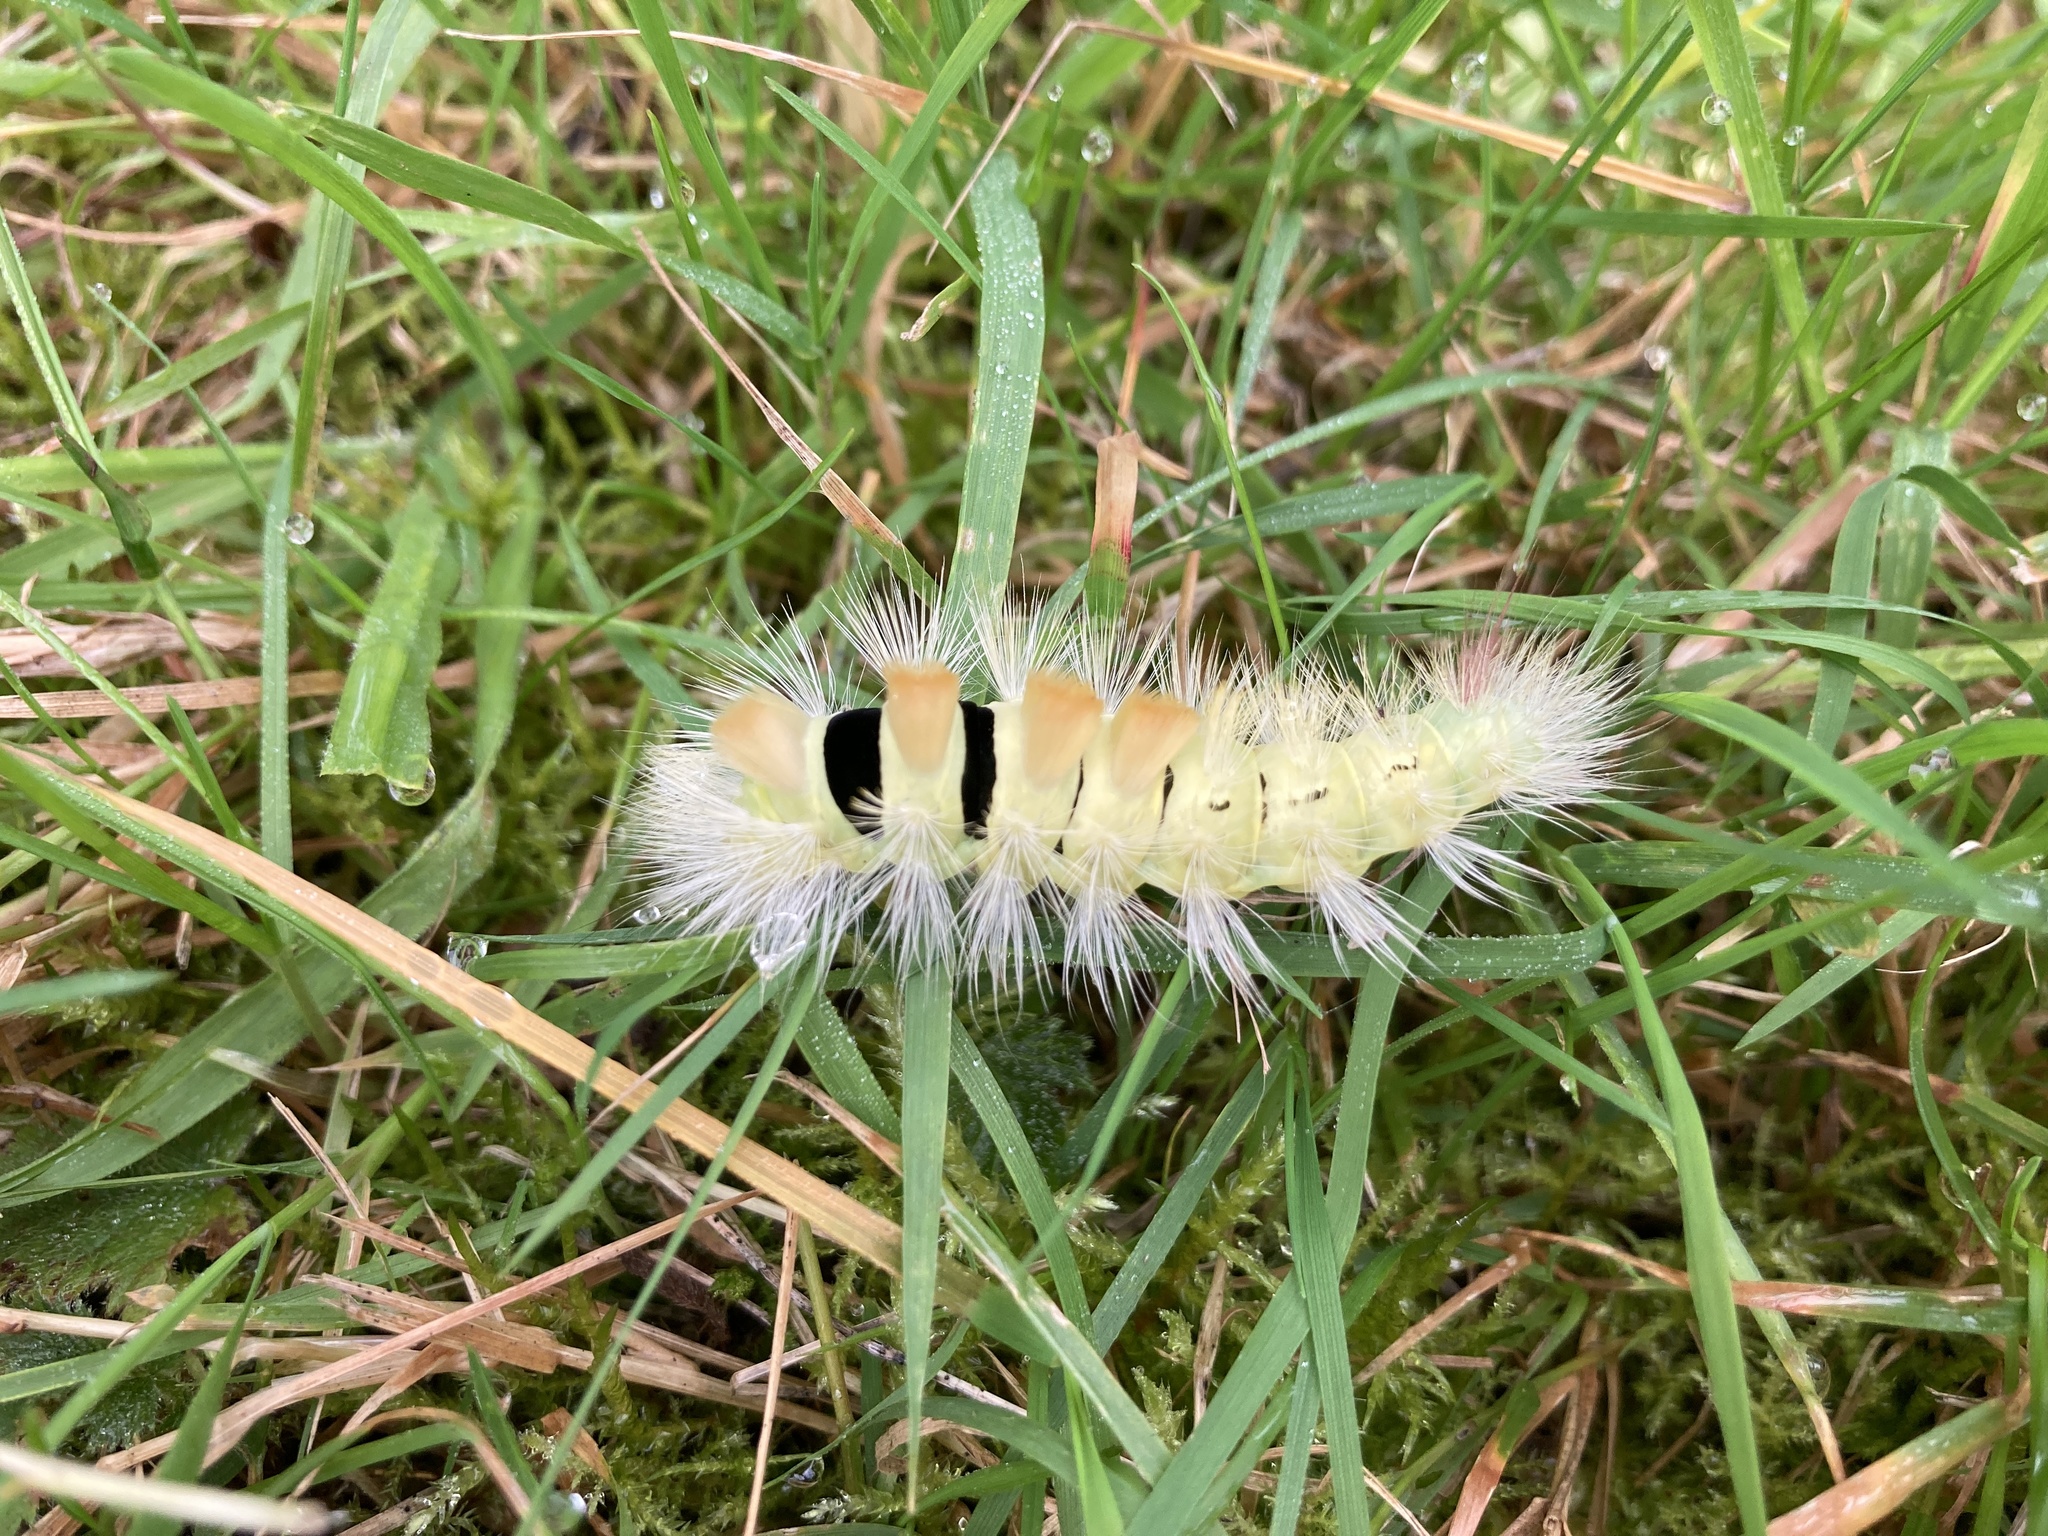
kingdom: Animalia
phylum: Arthropoda
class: Insecta
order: Lepidoptera
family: Erebidae
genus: Calliteara
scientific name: Calliteara pudibunda
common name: Pale tussock
